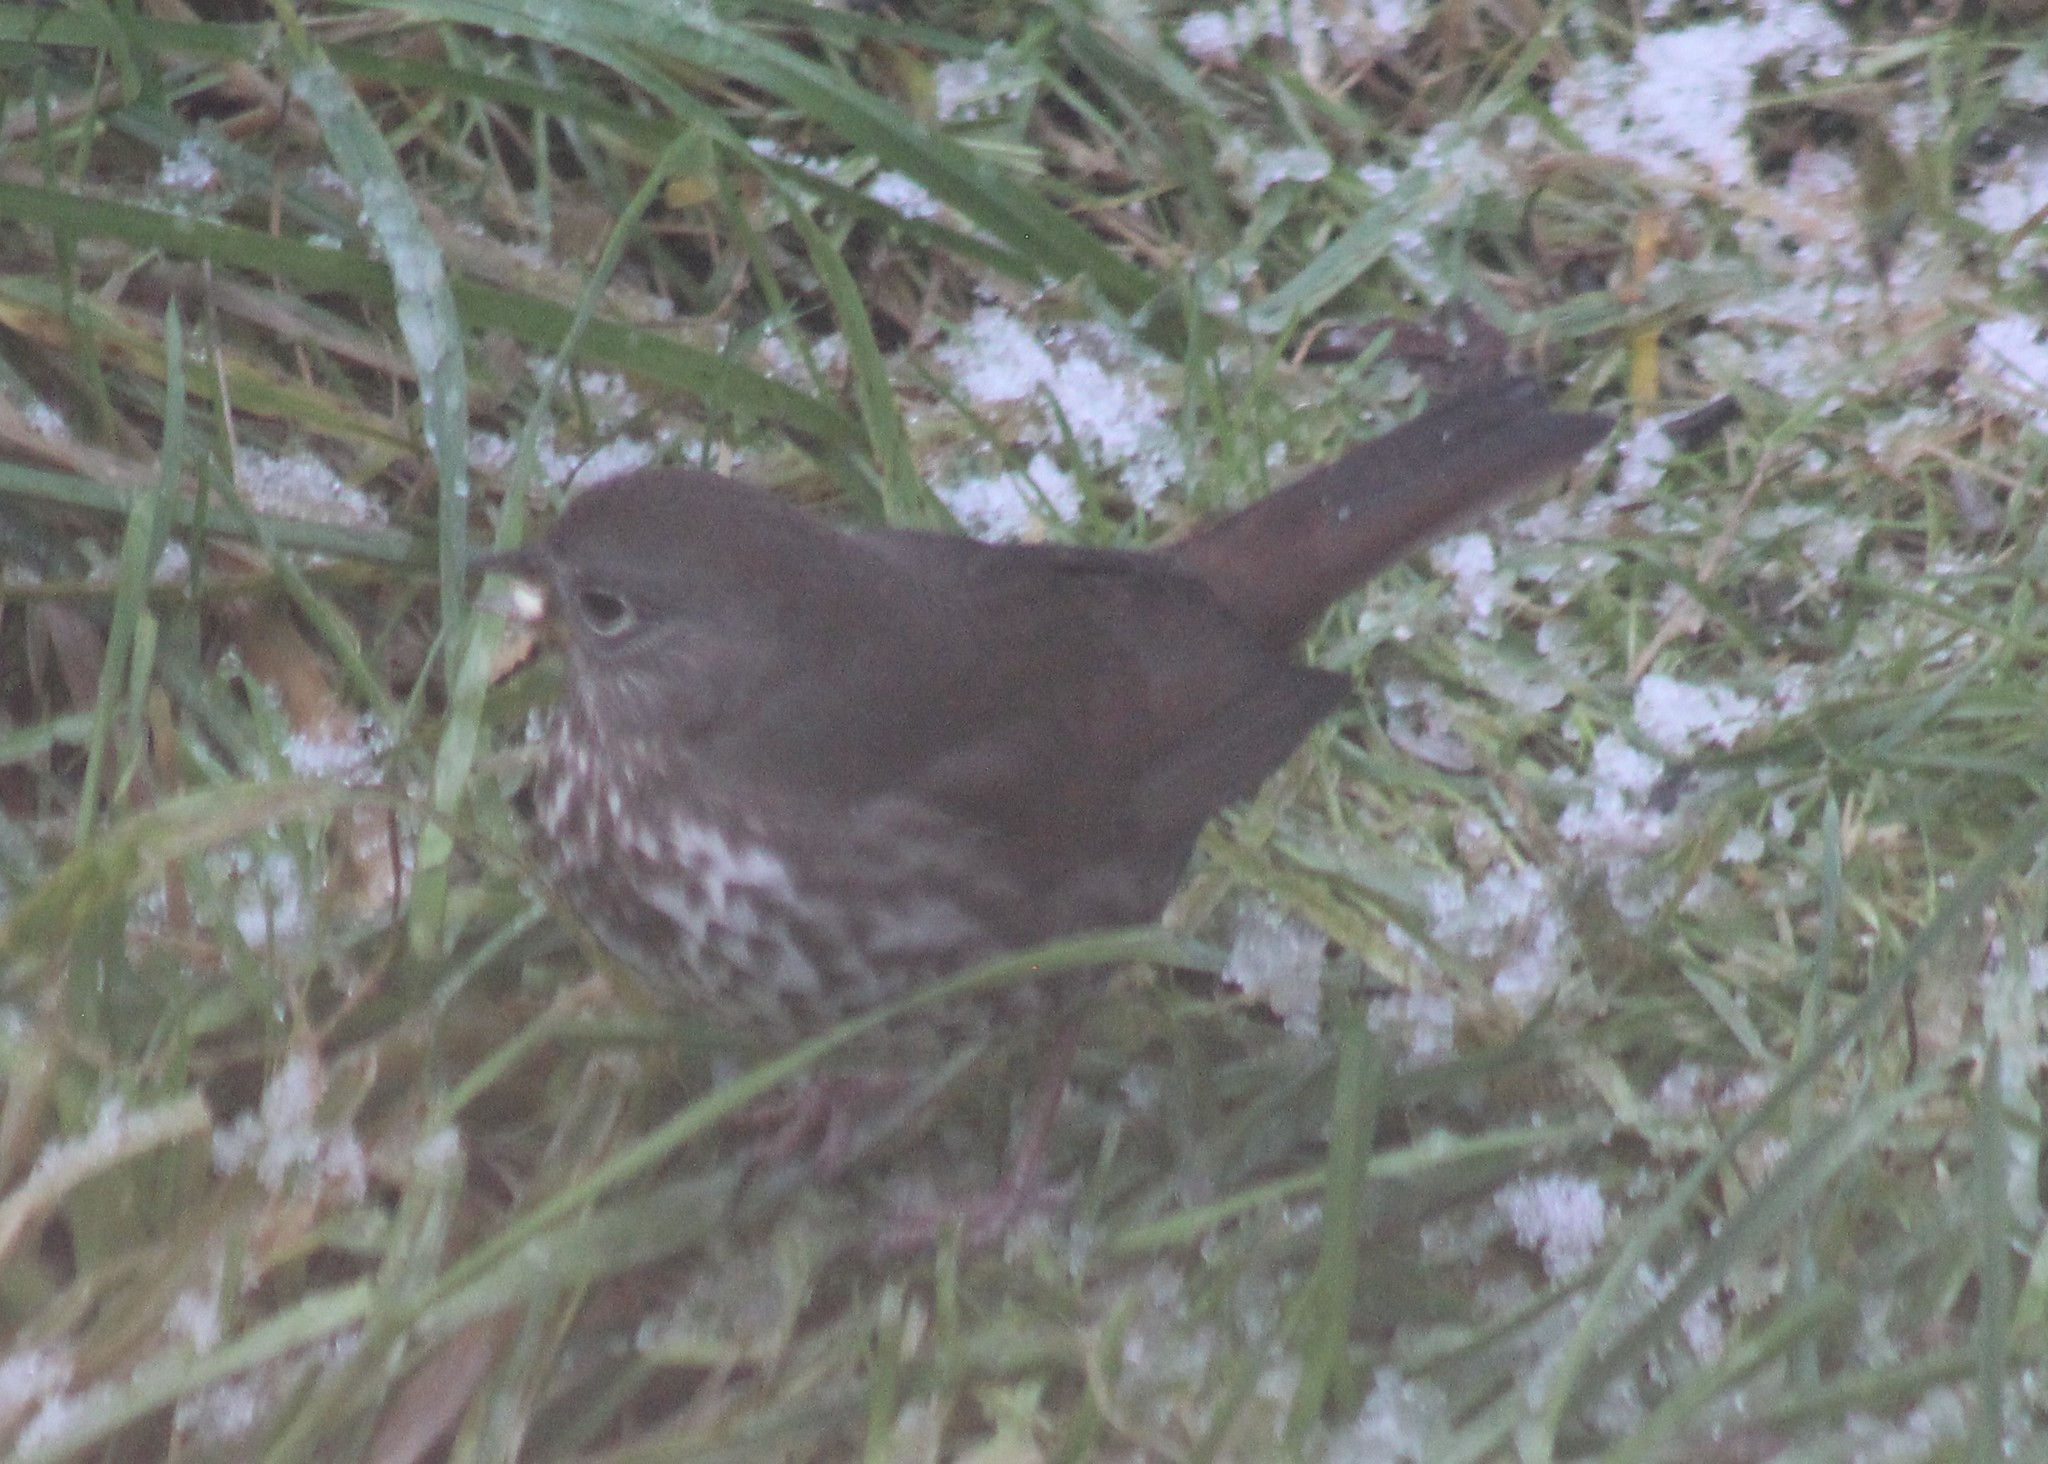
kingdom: Animalia
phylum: Chordata
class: Aves
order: Passeriformes
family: Passerellidae
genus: Passerella
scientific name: Passerella iliaca
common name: Fox sparrow
